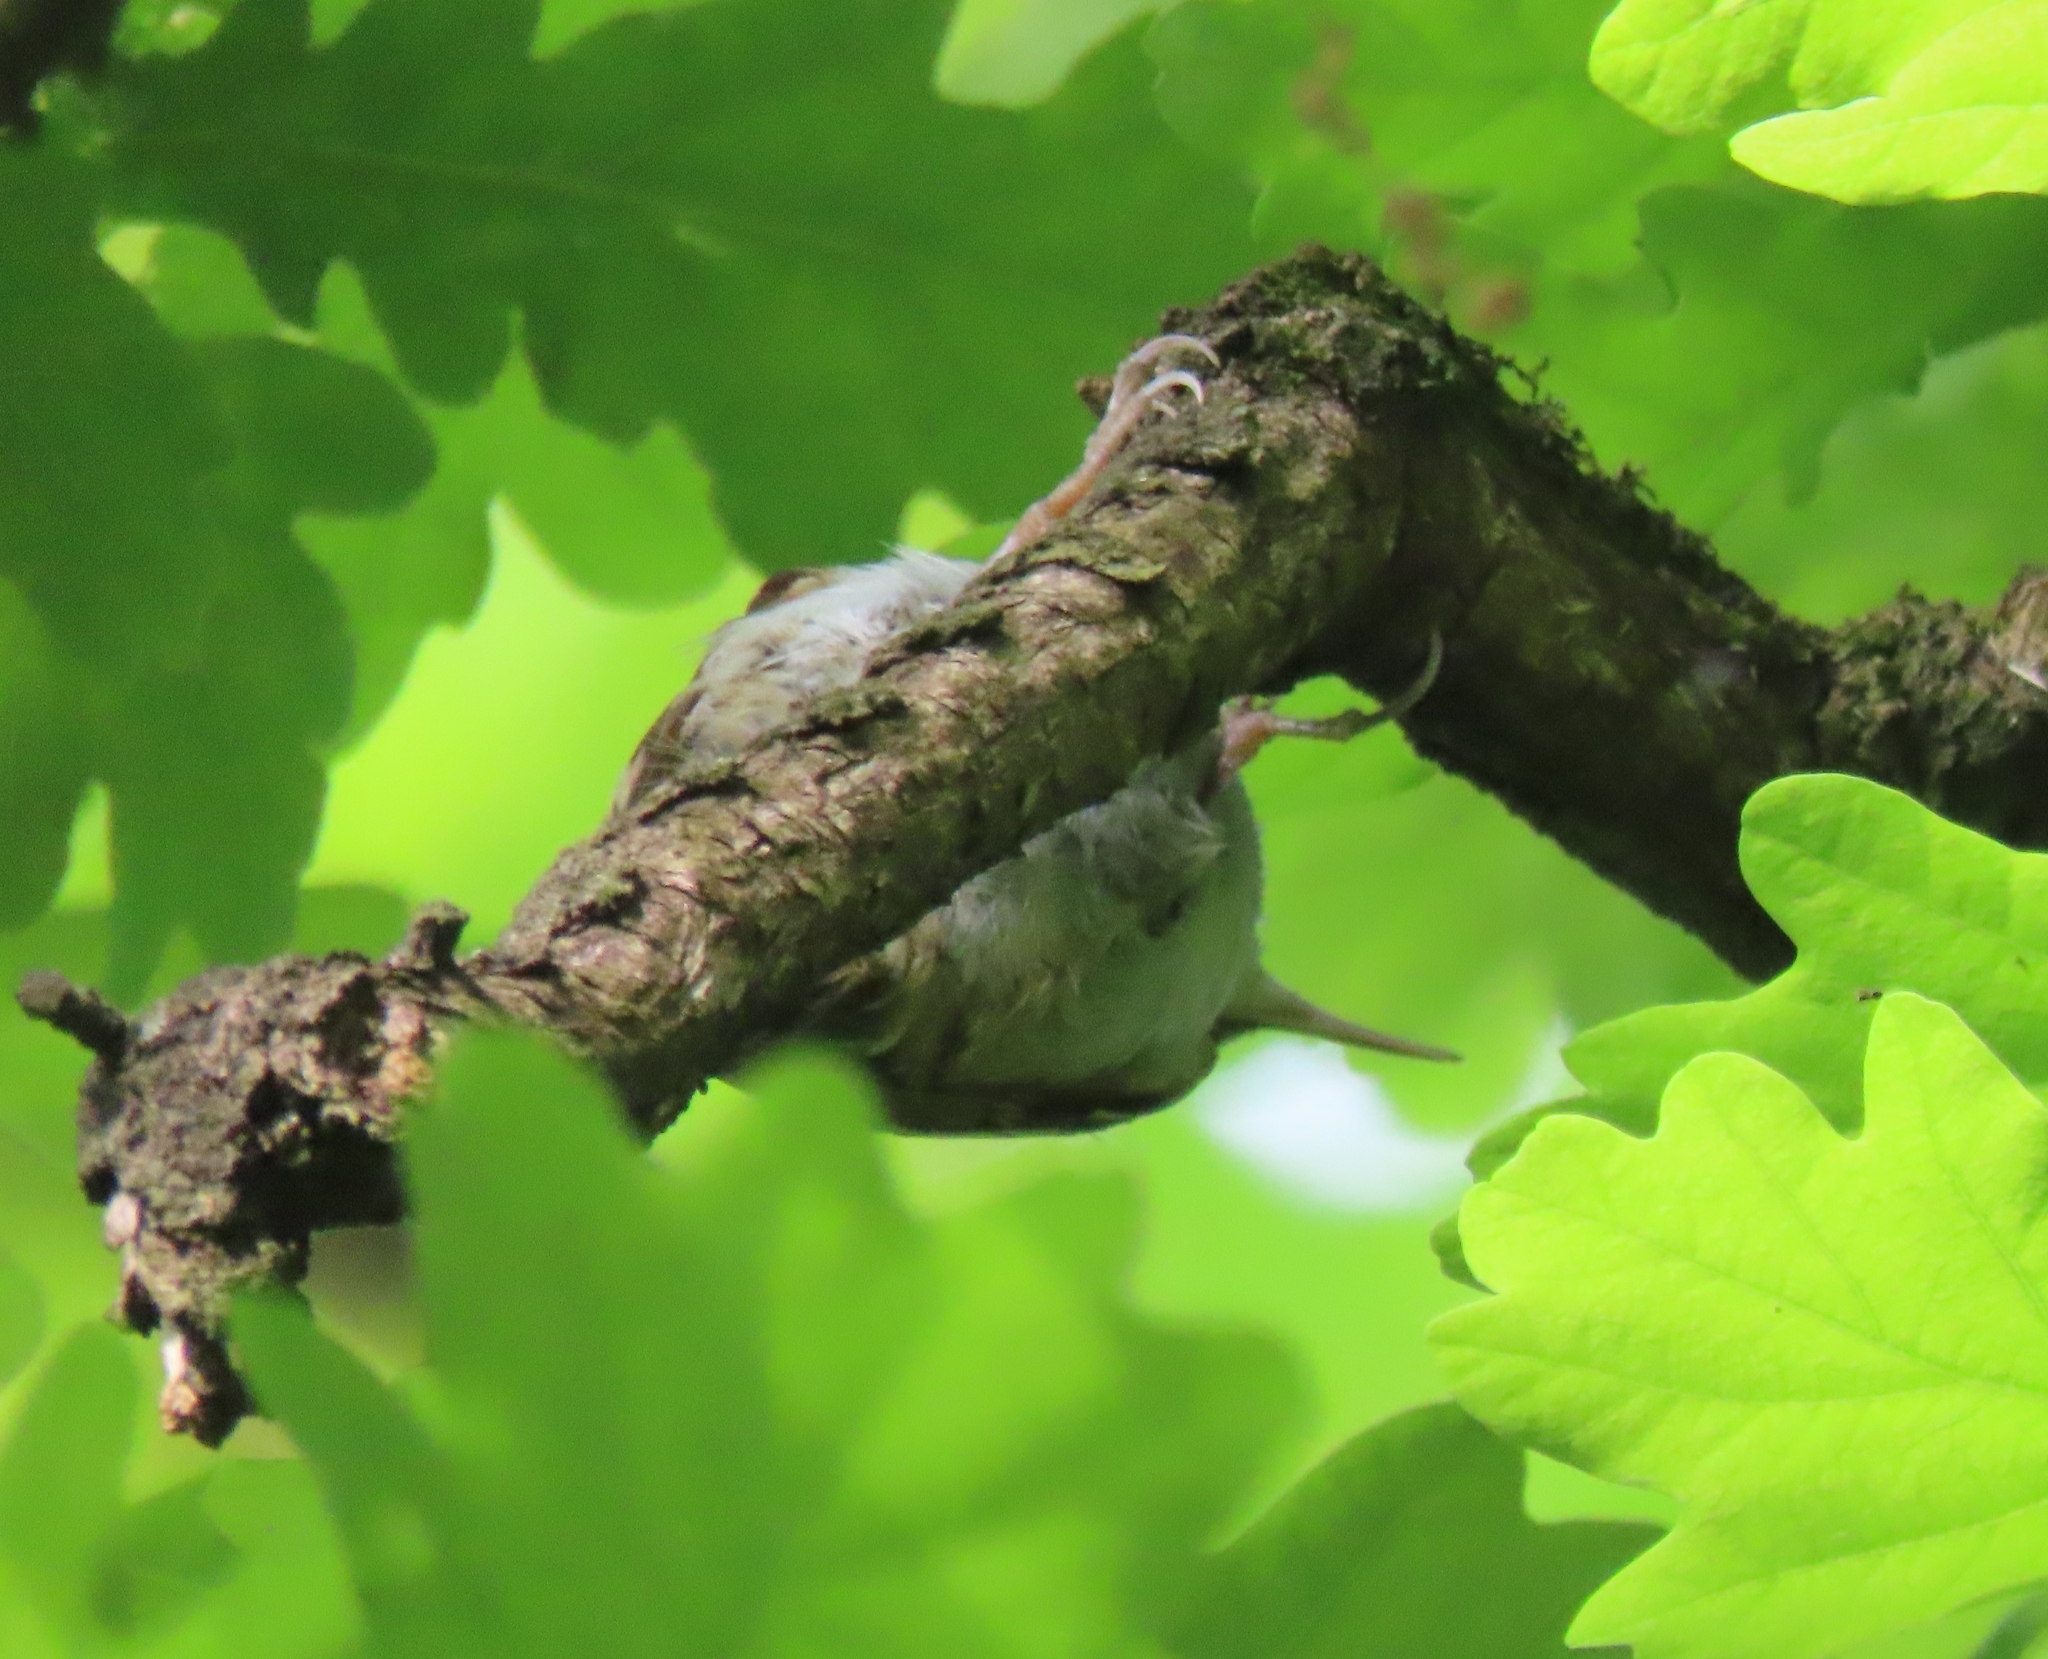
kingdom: Animalia
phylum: Chordata
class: Aves
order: Passeriformes
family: Certhiidae
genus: Certhia
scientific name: Certhia familiaris
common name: Eurasian treecreeper
